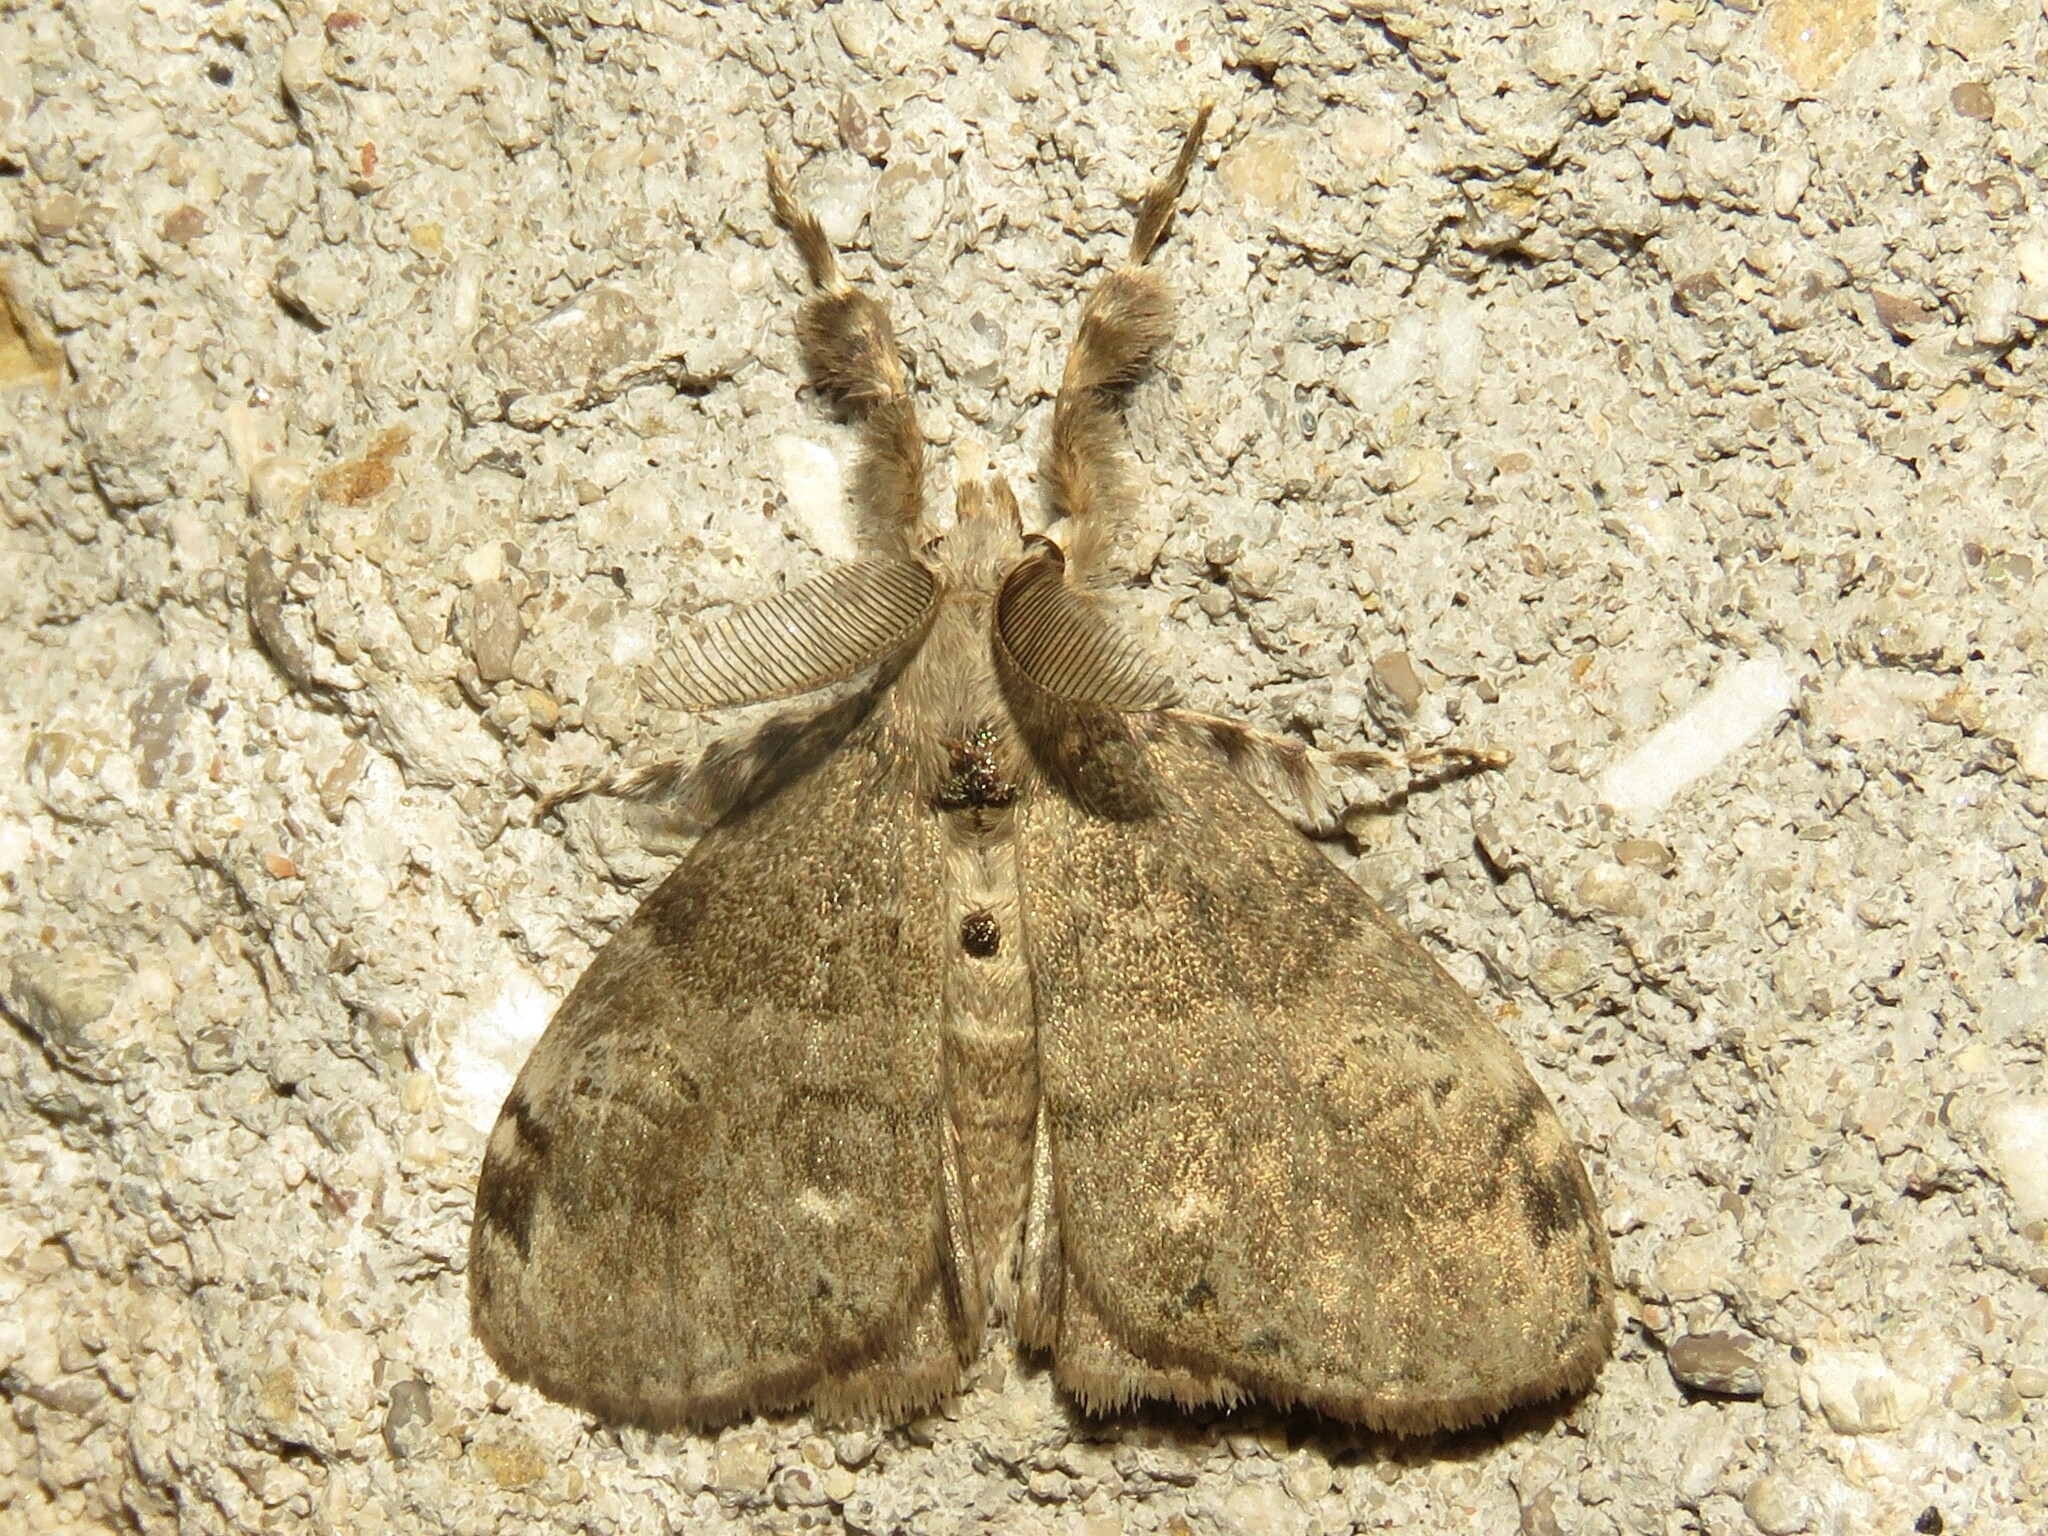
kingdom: Animalia
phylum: Arthropoda
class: Insecta
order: Lepidoptera
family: Erebidae
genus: Orgyia
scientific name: Orgyia leucostigma
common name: White-marked tussock moth
